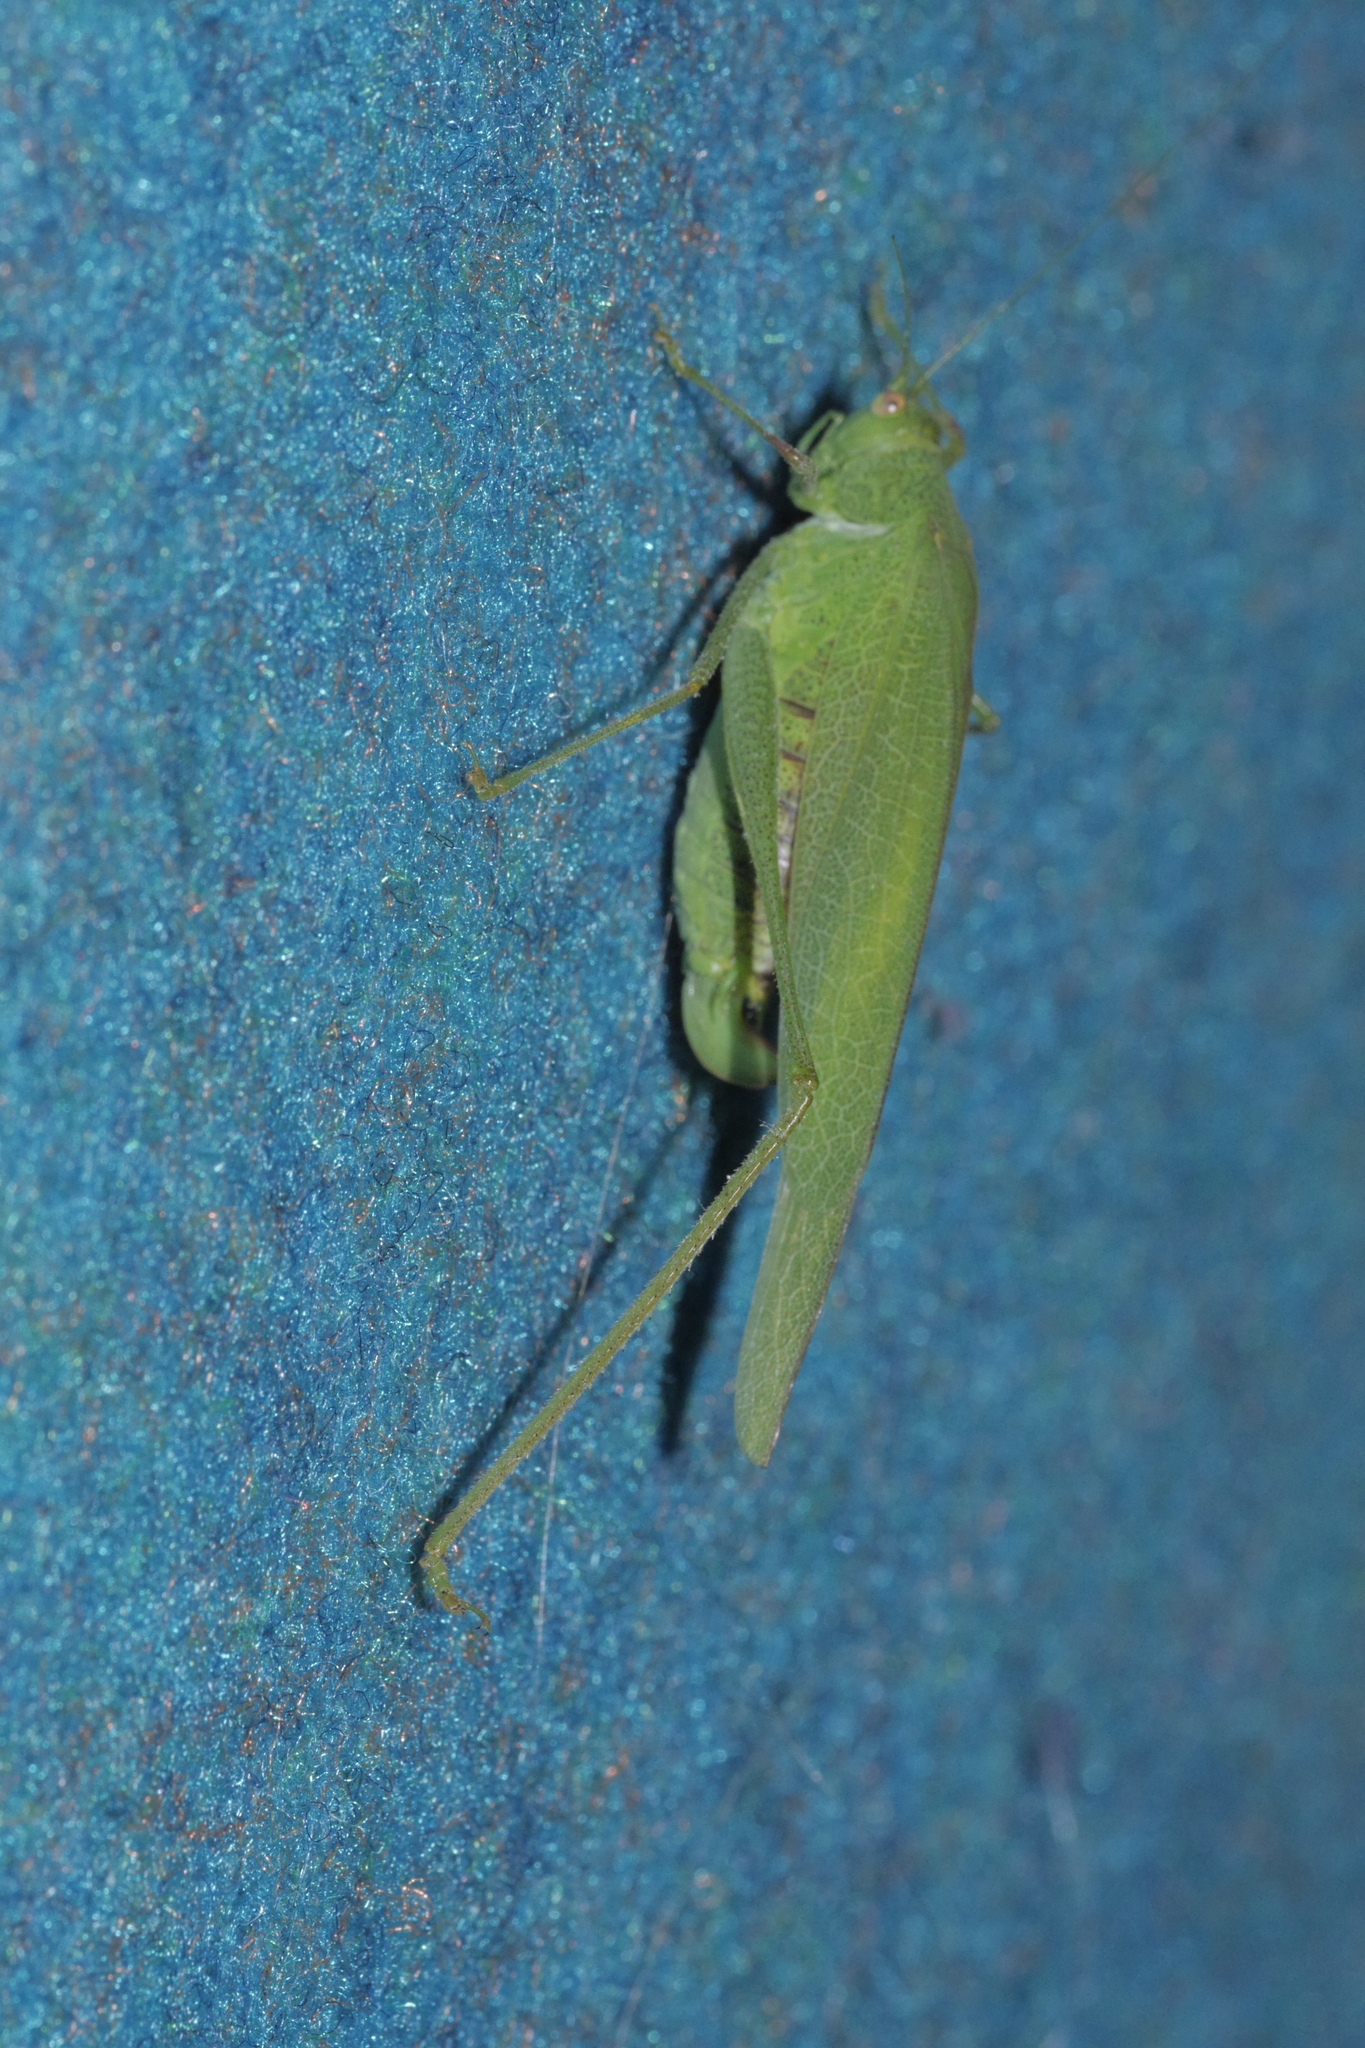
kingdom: Animalia
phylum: Arthropoda
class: Insecta
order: Orthoptera
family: Tettigoniidae
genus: Phaneroptera
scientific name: Phaneroptera nana
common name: Southern sickle bush-cricket
